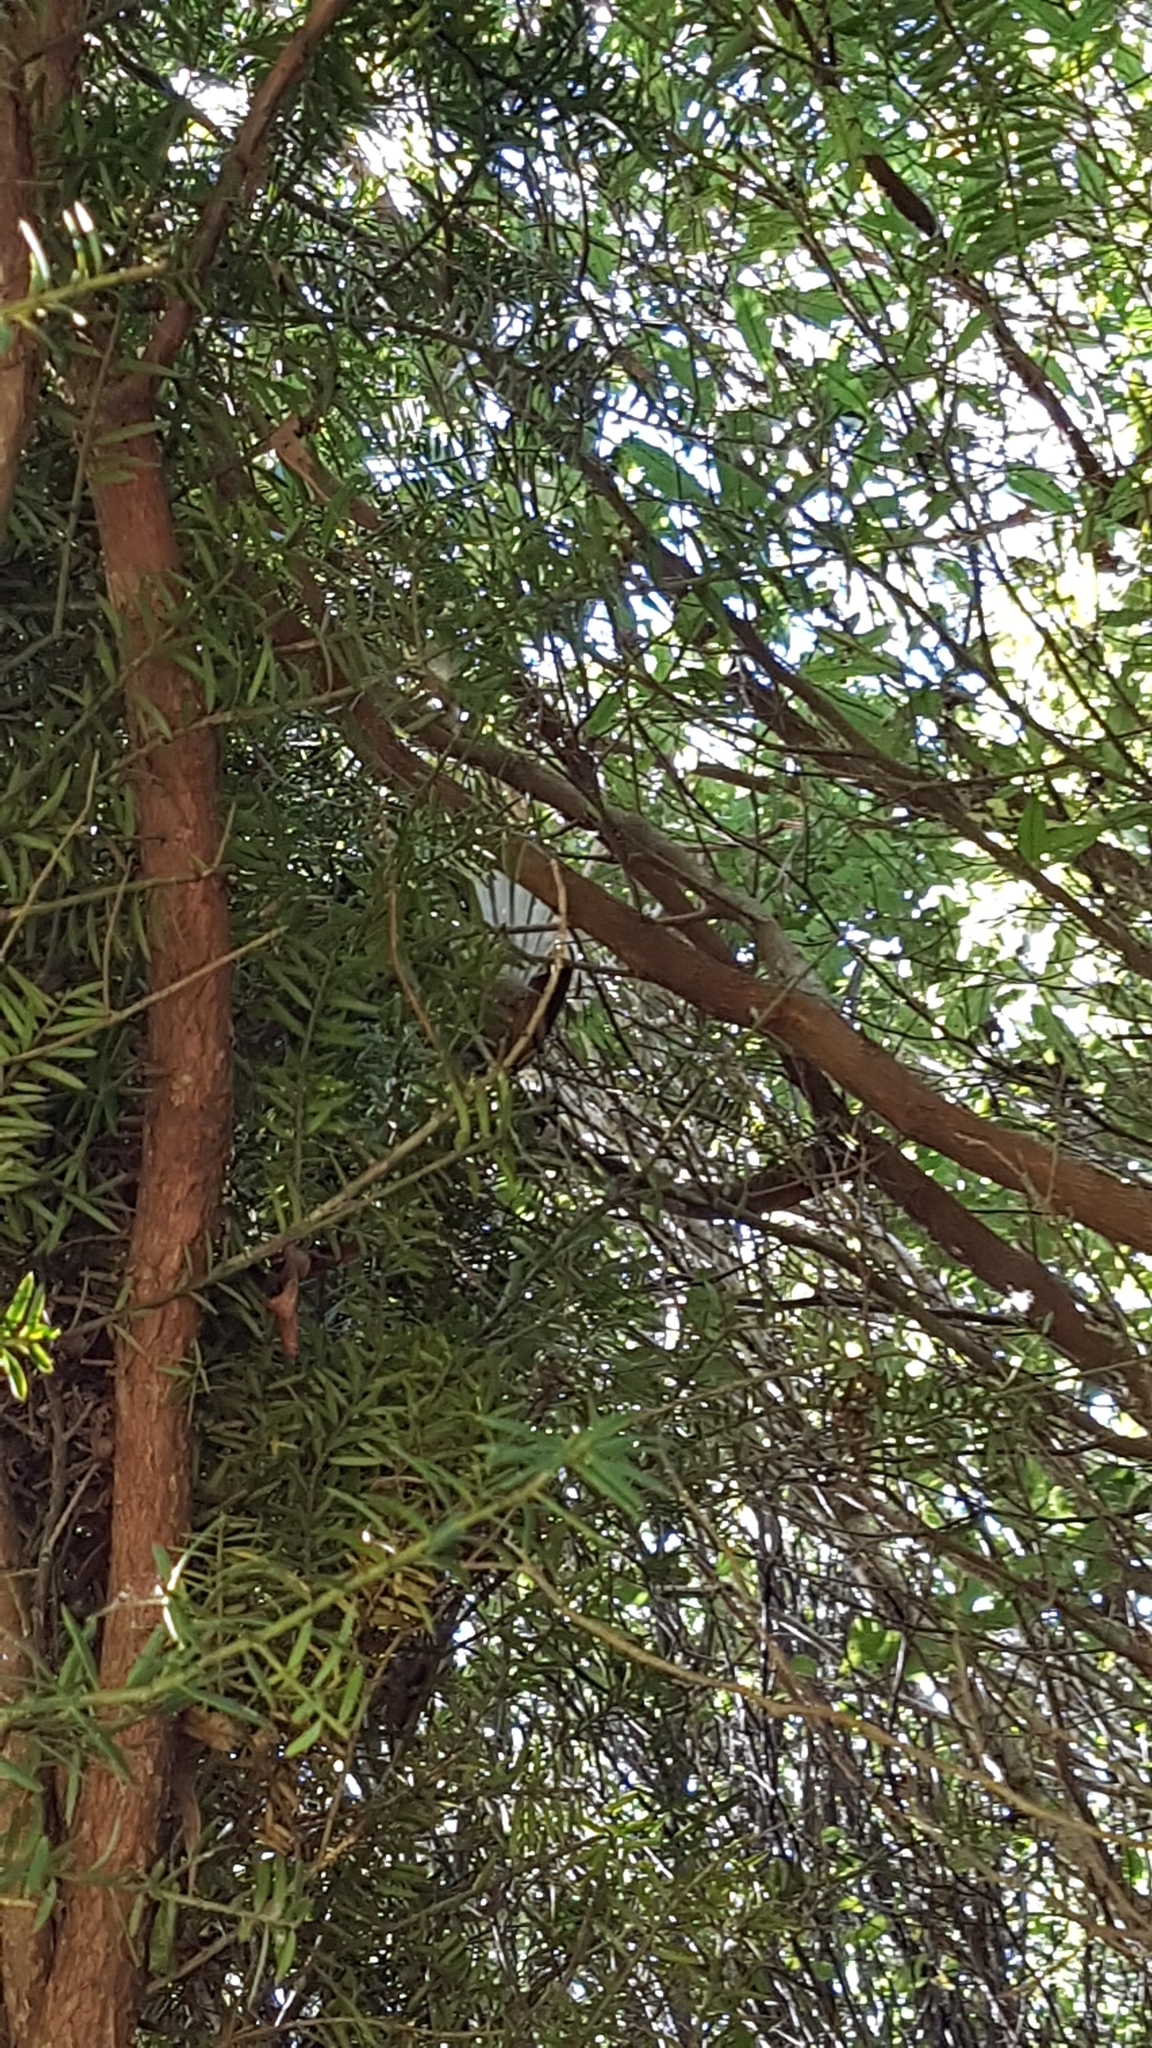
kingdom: Animalia
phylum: Chordata
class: Aves
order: Passeriformes
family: Rhipiduridae
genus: Rhipidura
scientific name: Rhipidura fuliginosa
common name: New zealand fantail
